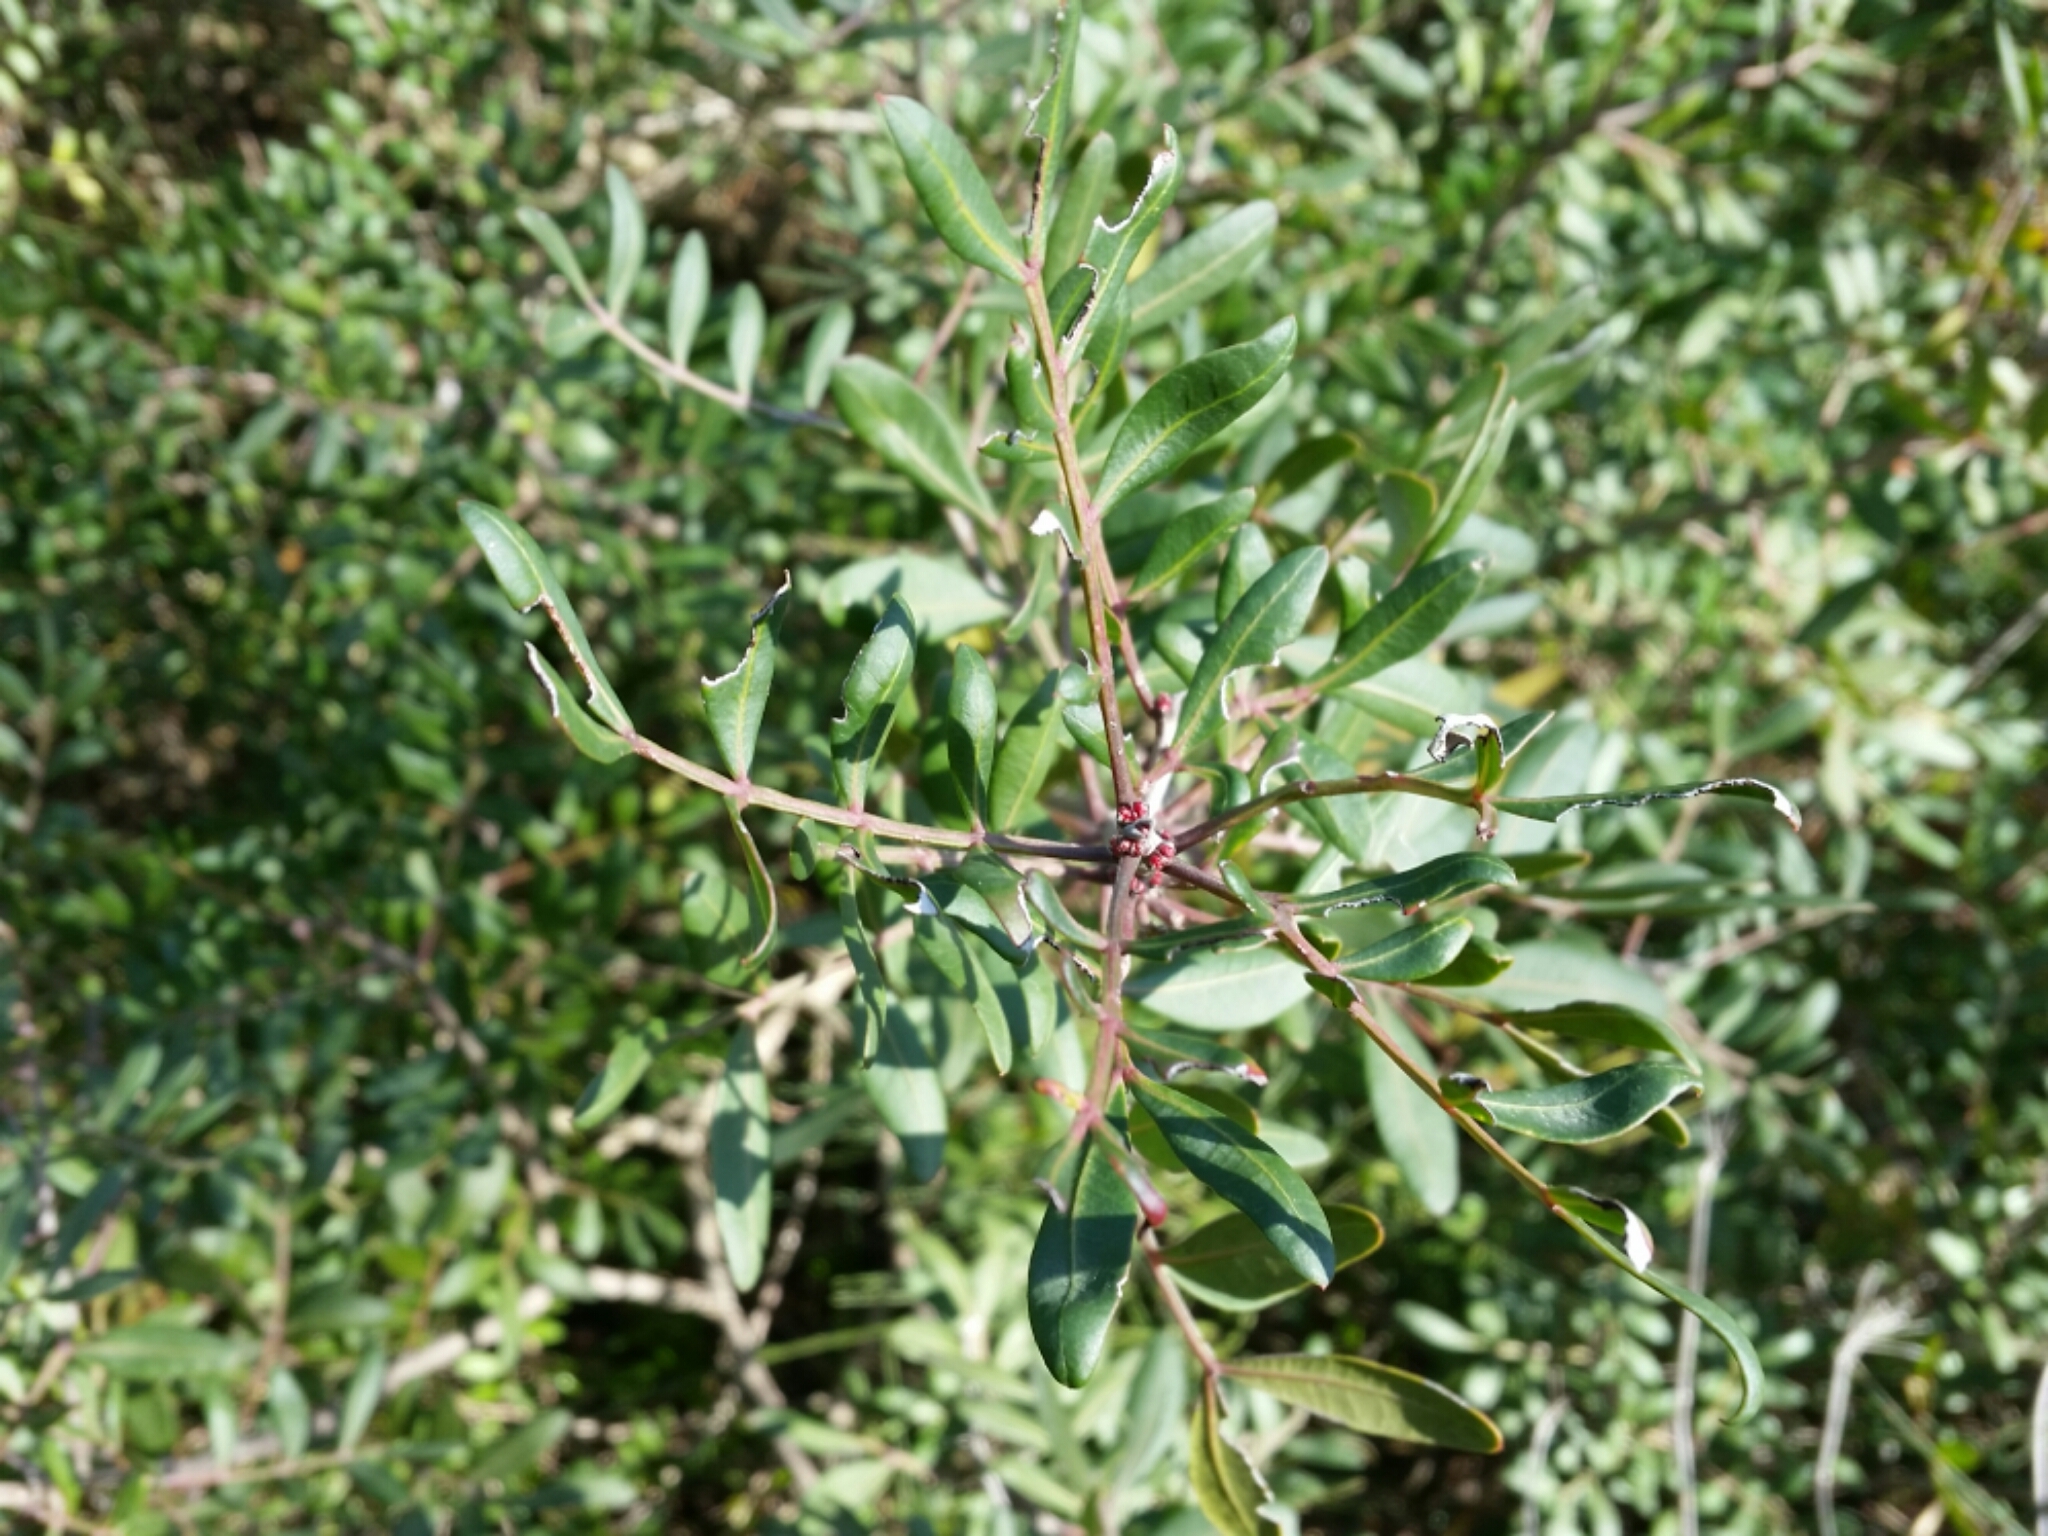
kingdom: Plantae
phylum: Tracheophyta
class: Magnoliopsida
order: Sapindales
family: Anacardiaceae
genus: Pistacia
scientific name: Pistacia lentiscus
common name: Lentisk
